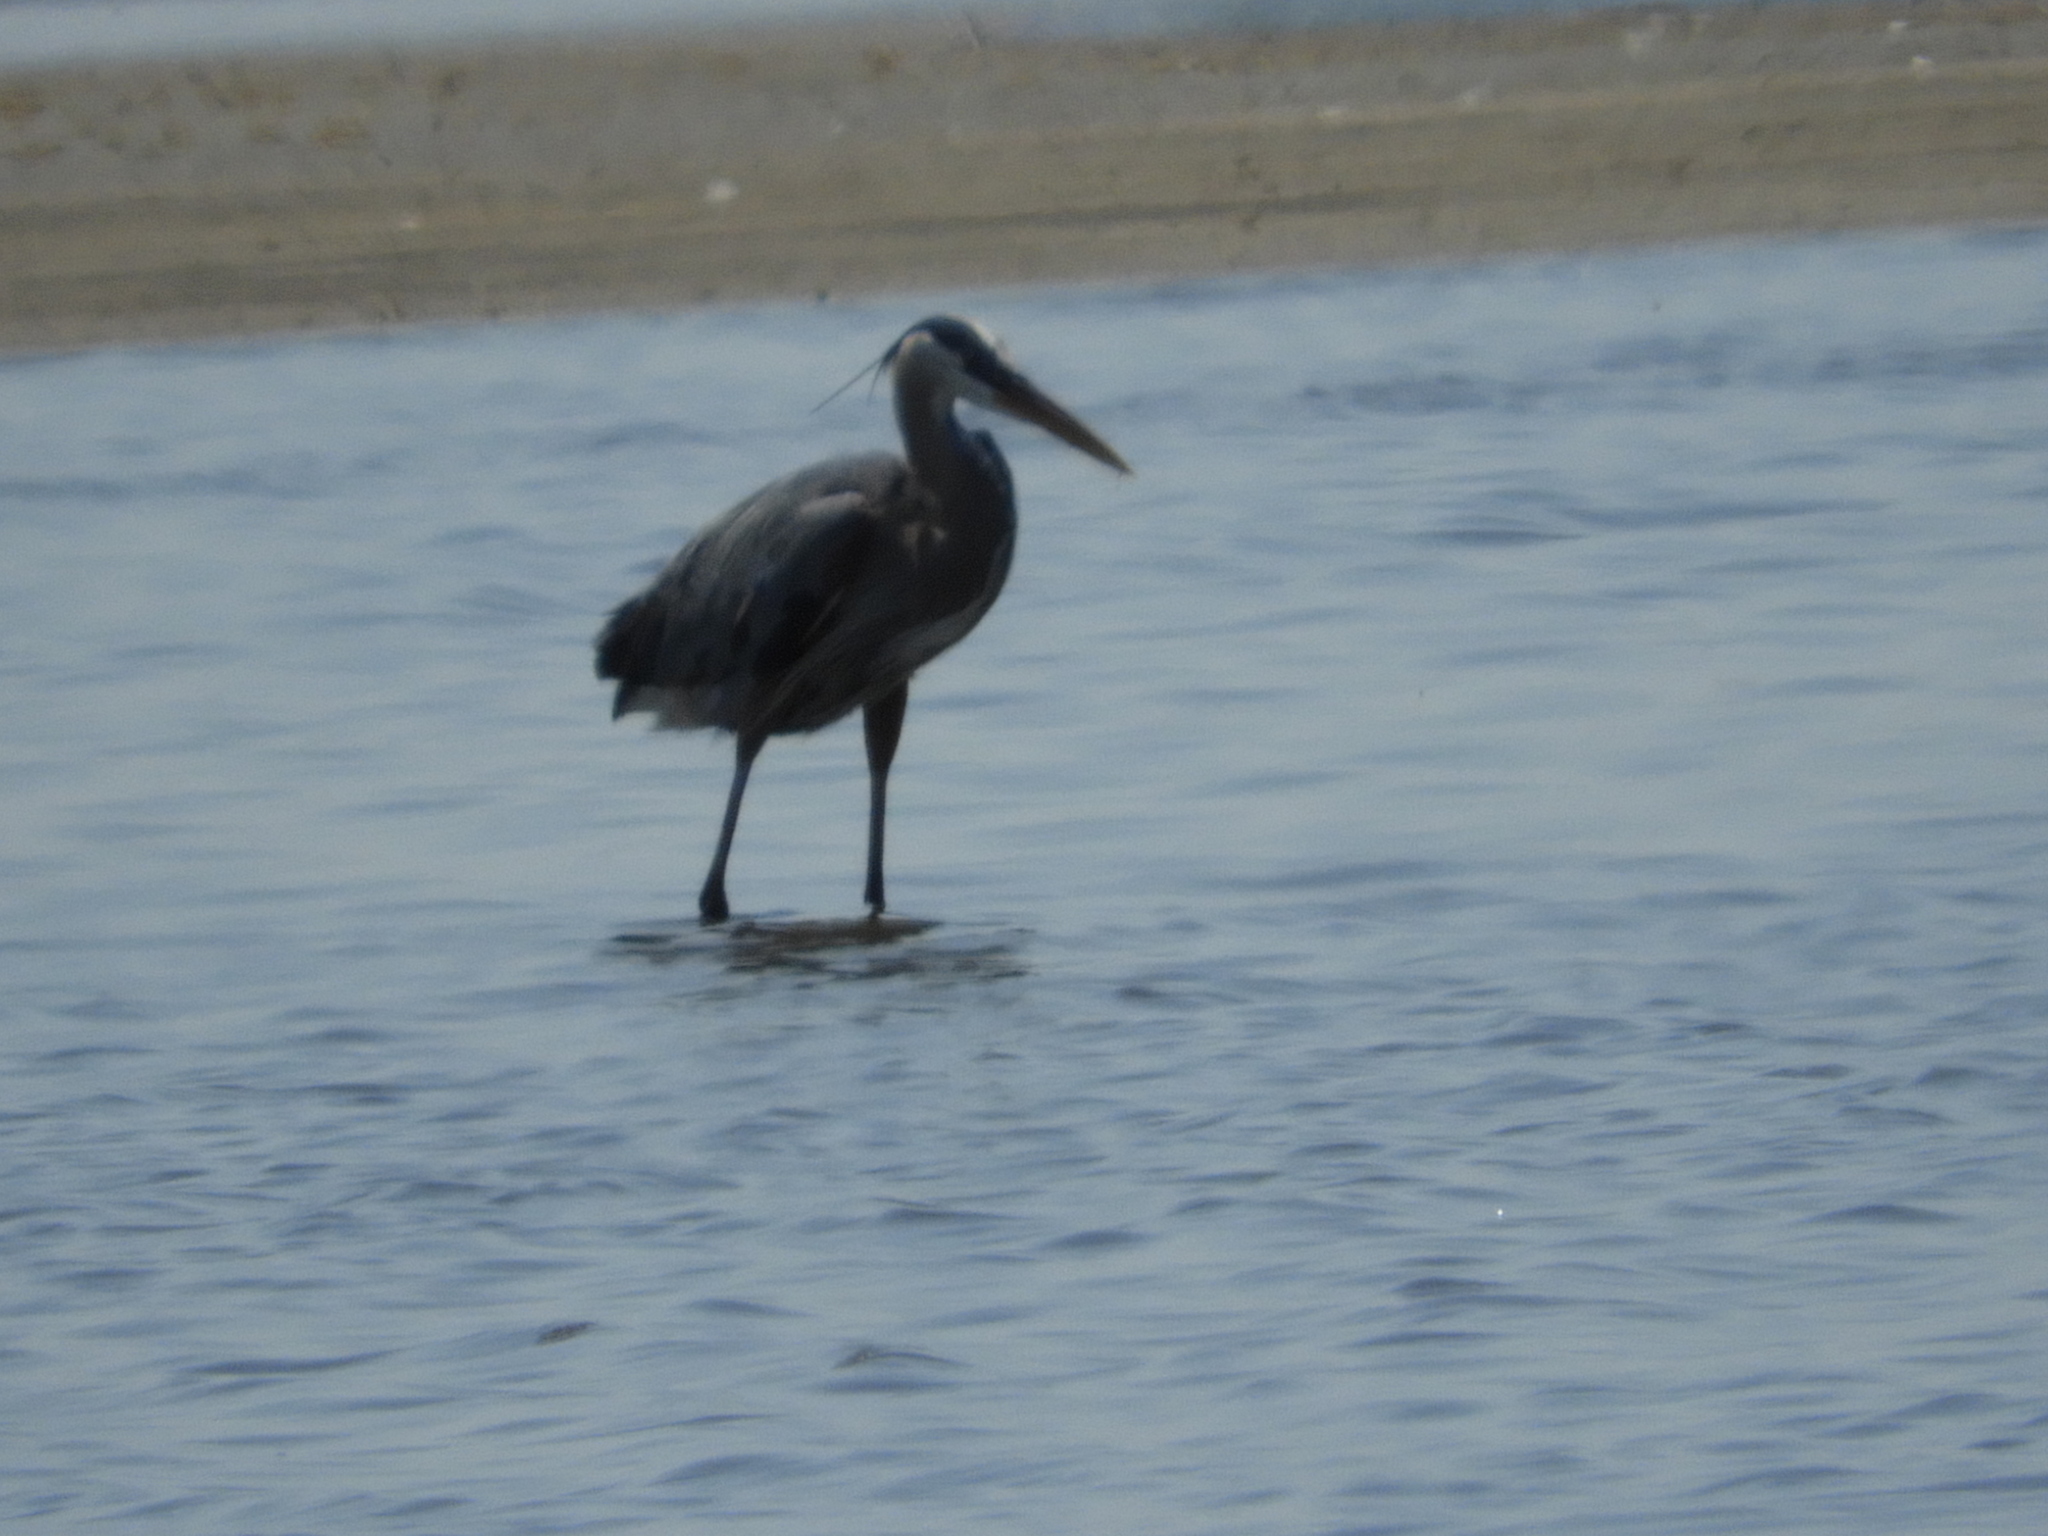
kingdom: Animalia
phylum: Chordata
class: Aves
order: Pelecaniformes
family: Ardeidae
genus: Ardea
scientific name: Ardea herodias
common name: Great blue heron
